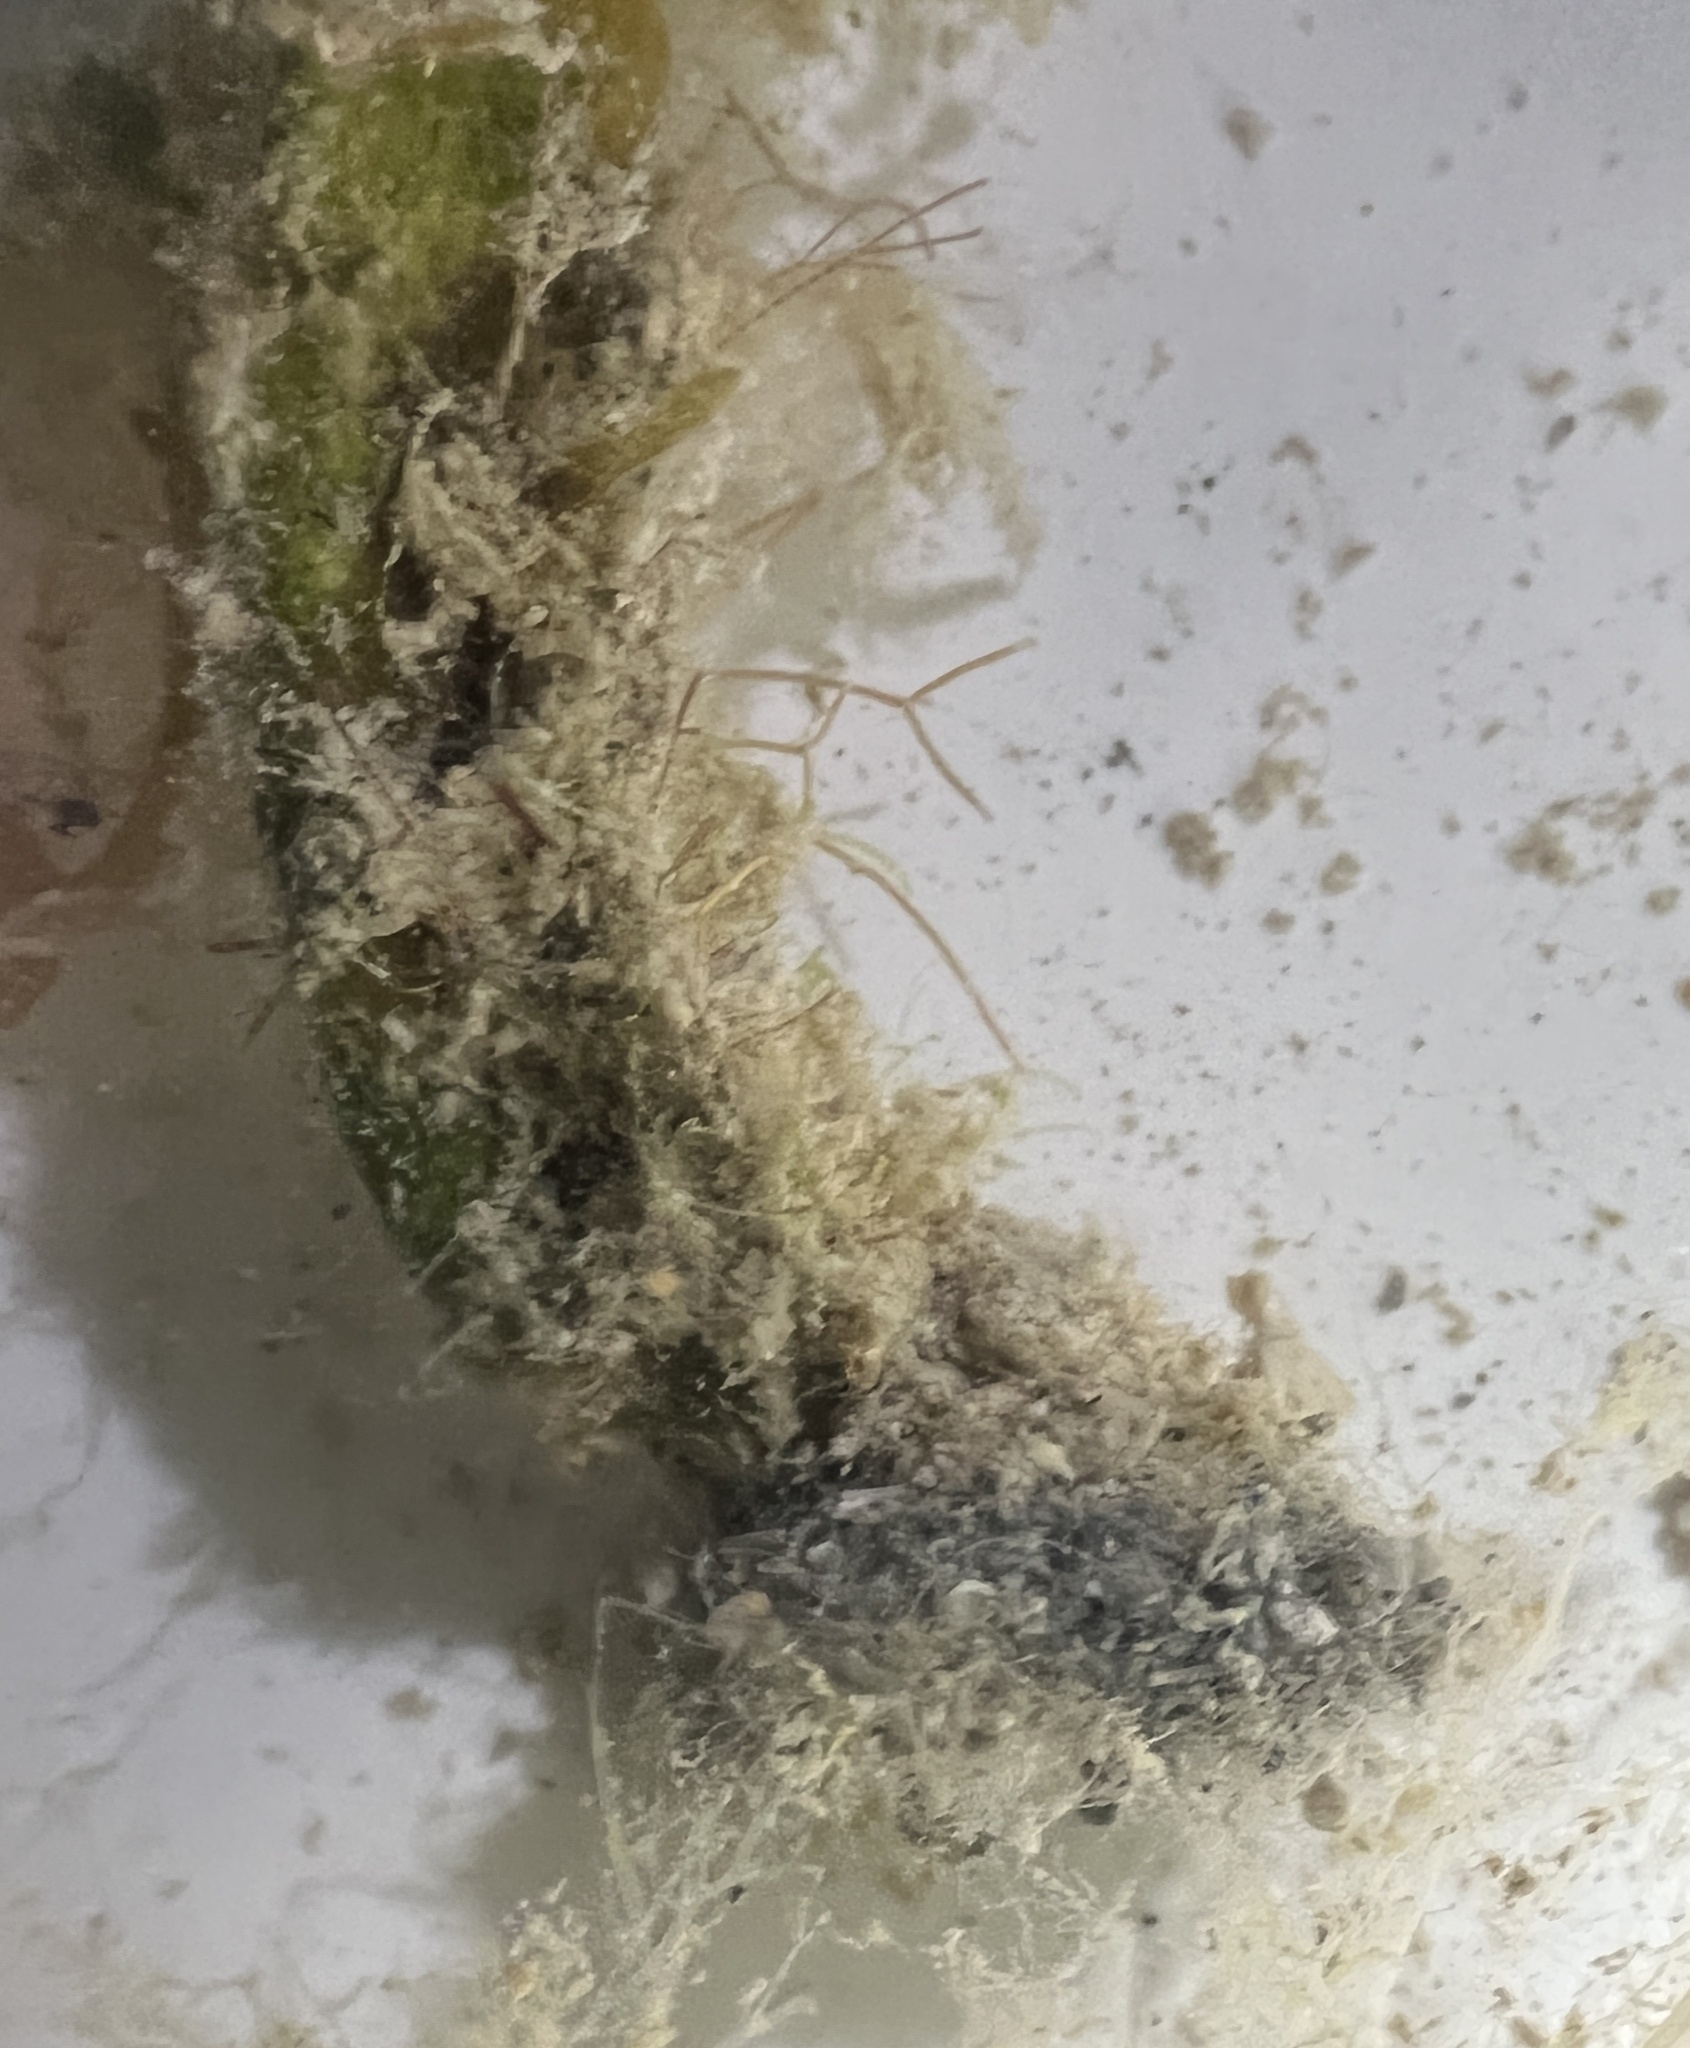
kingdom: Plantae
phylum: Chlorophyta
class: Ulvophyceae
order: Bryopsidales
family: Halimedaceae
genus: Halimeda
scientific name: Halimeda monile
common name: Green jointed-stalk algae
